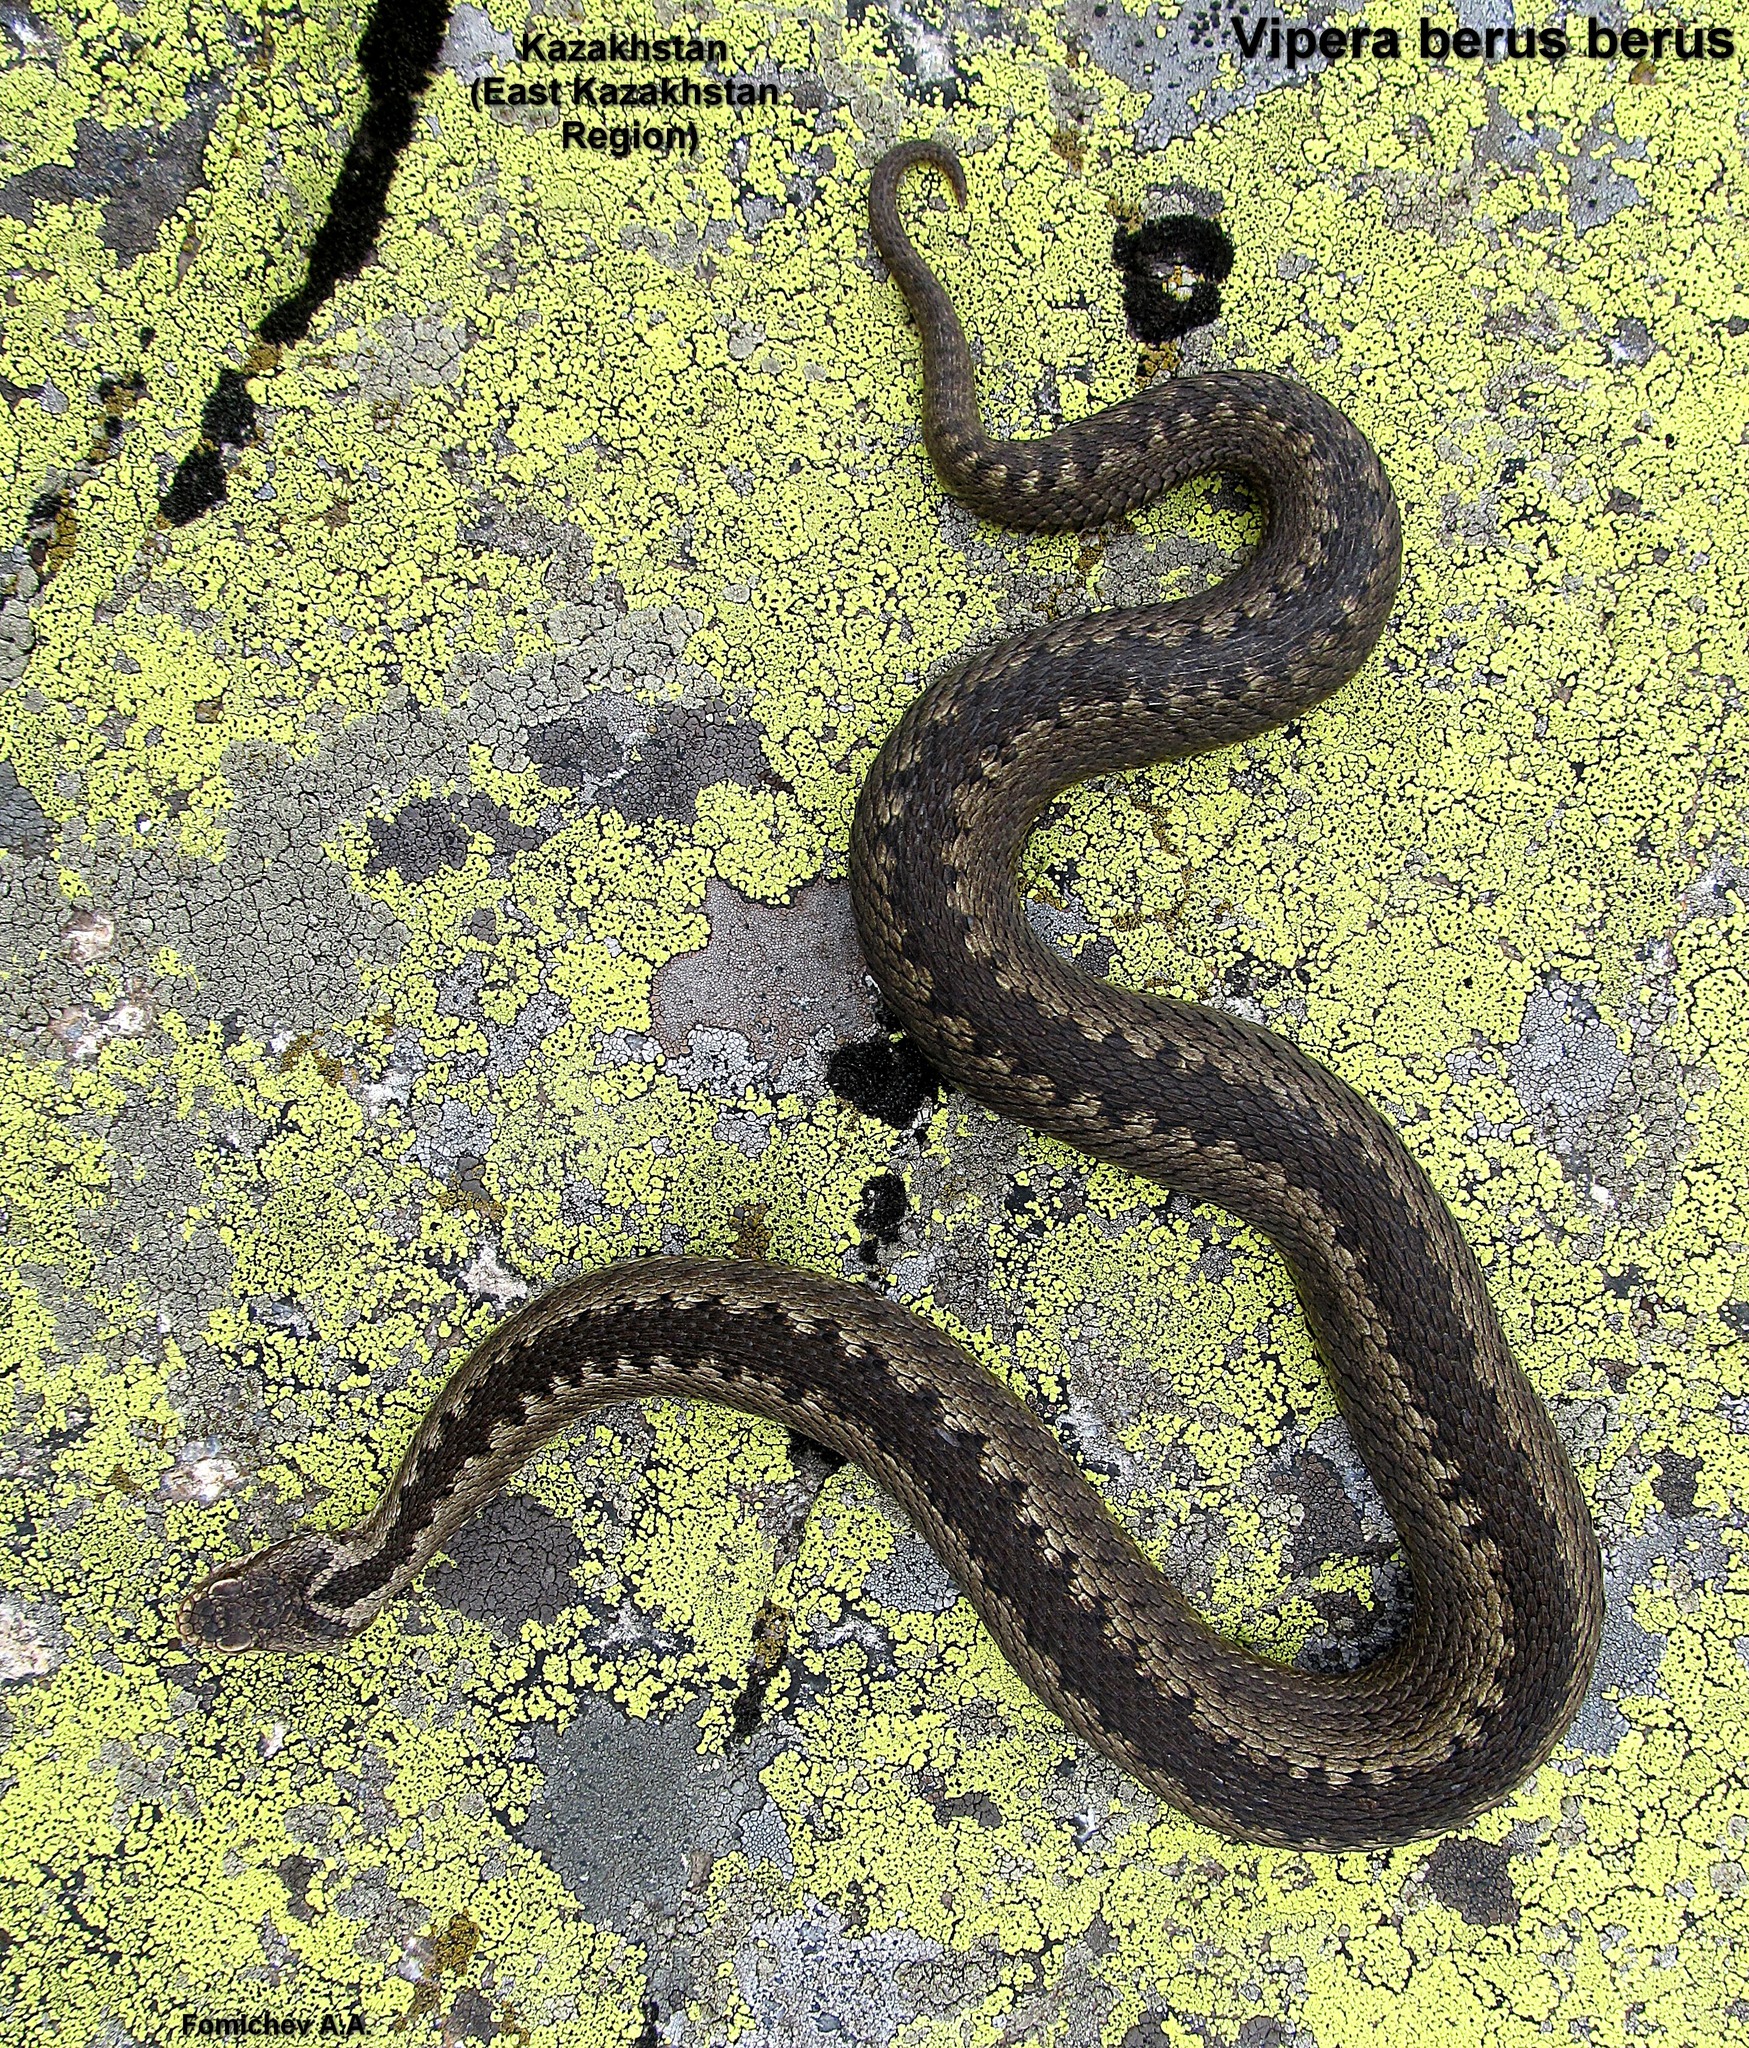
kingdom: Animalia
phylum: Chordata
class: Squamata
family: Viperidae
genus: Vipera
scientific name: Vipera berus
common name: Adder
